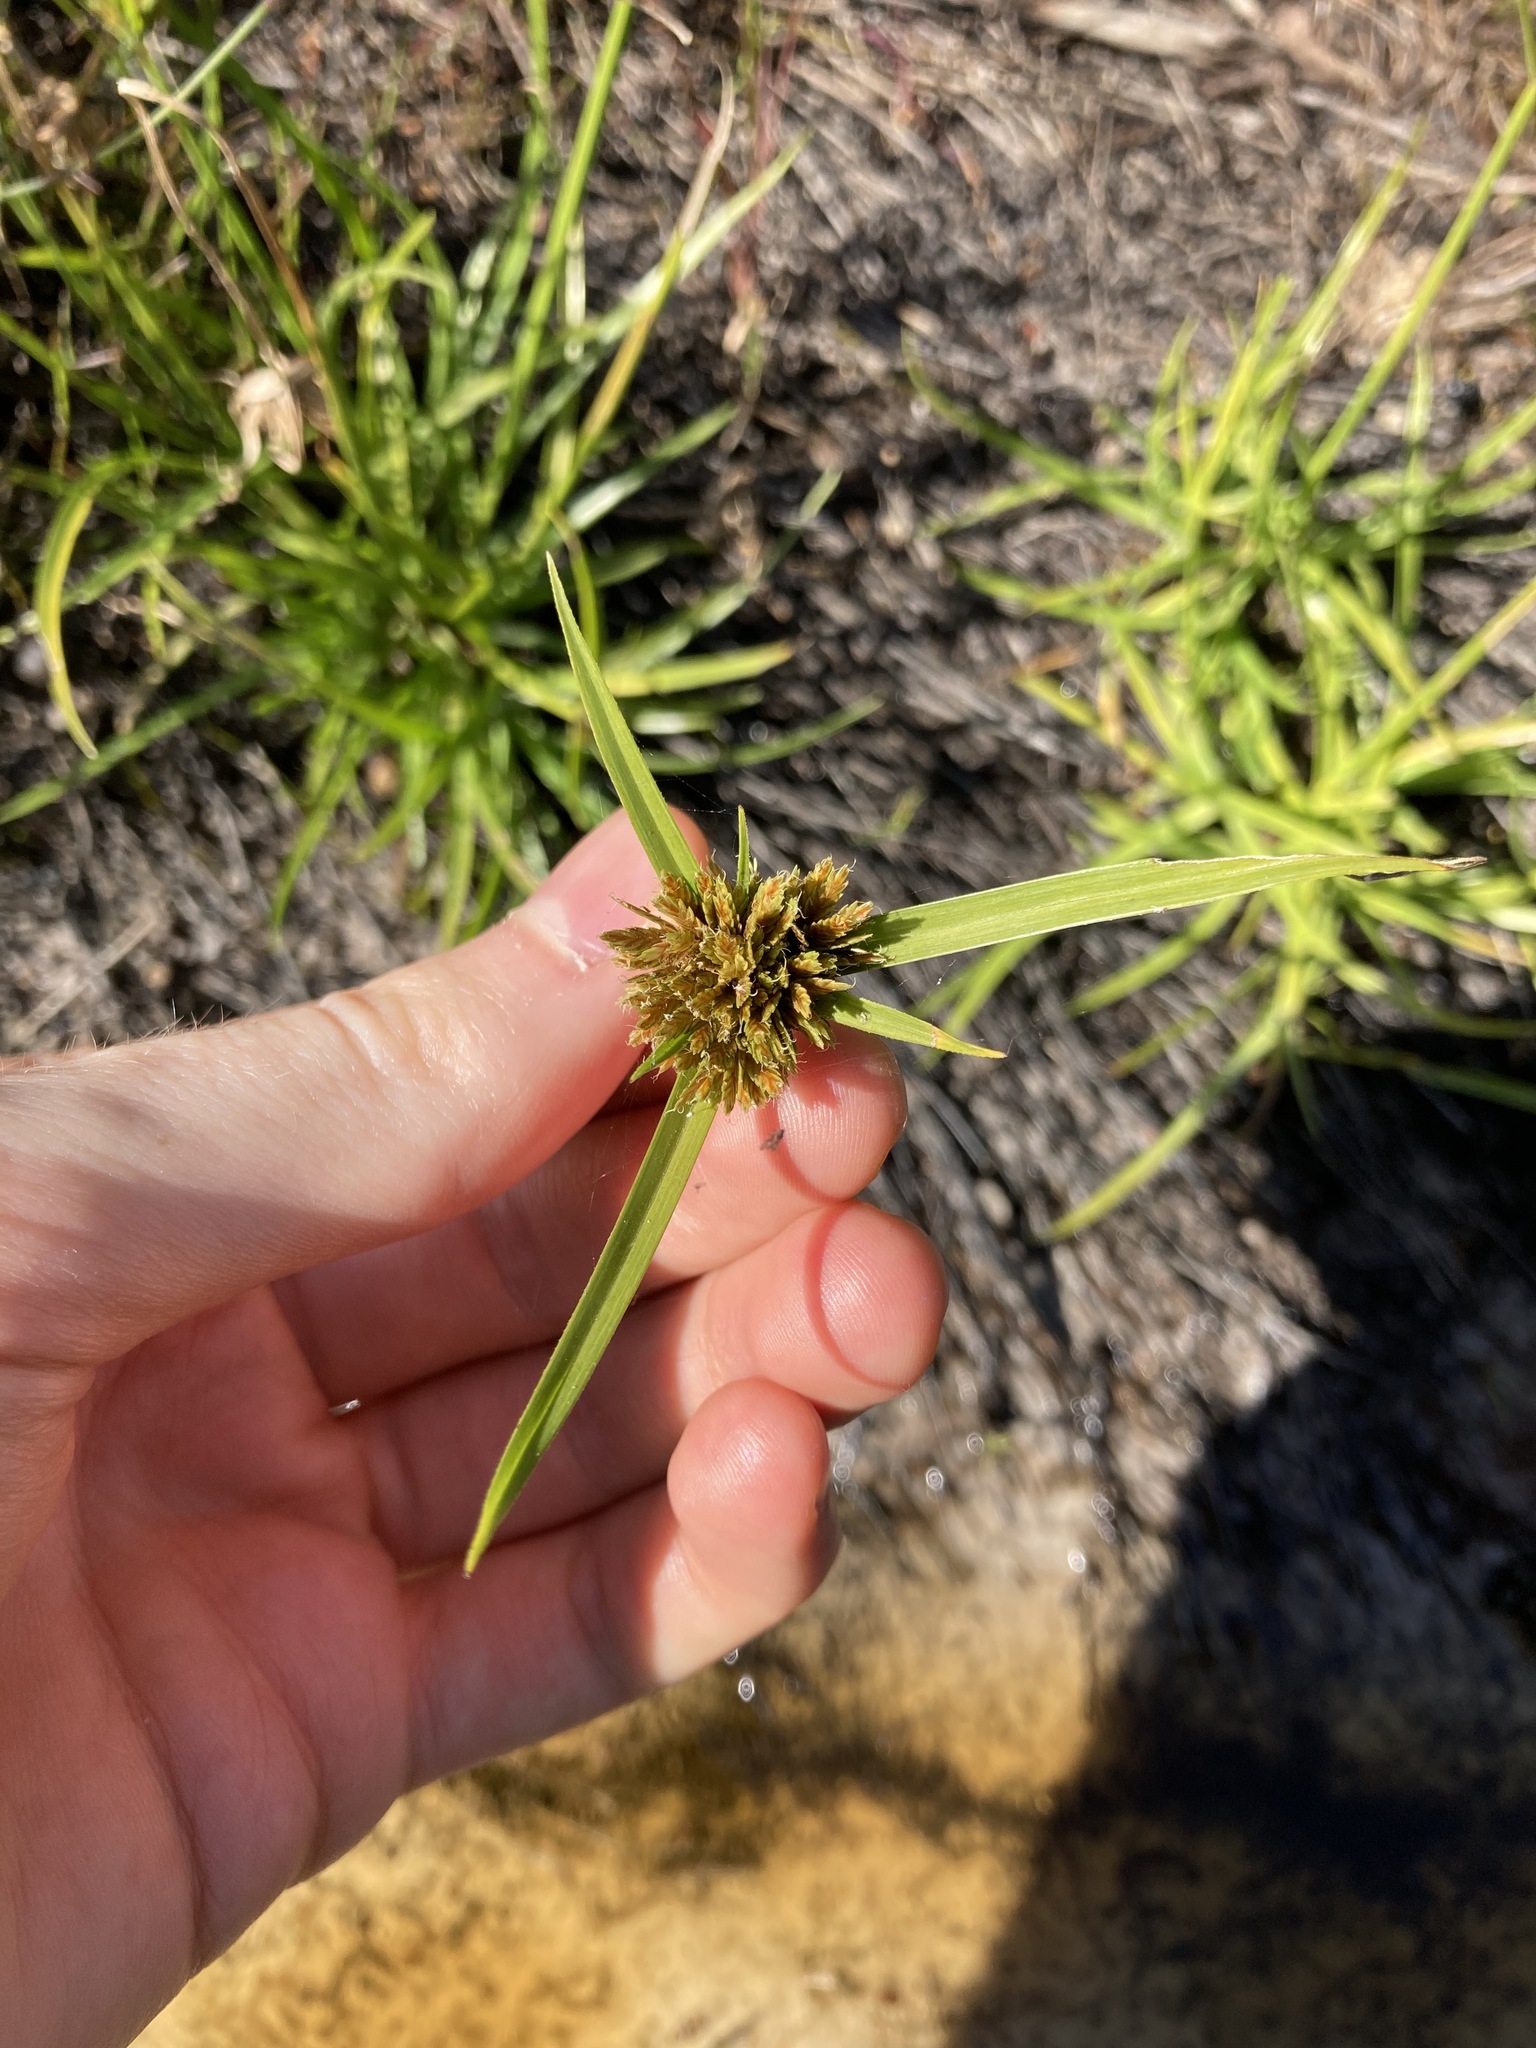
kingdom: Plantae
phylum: Tracheophyta
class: Liliopsida
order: Poales
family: Cyperaceae
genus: Cyperus
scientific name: Cyperus polystachyos
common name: Bunchy flat sedge
